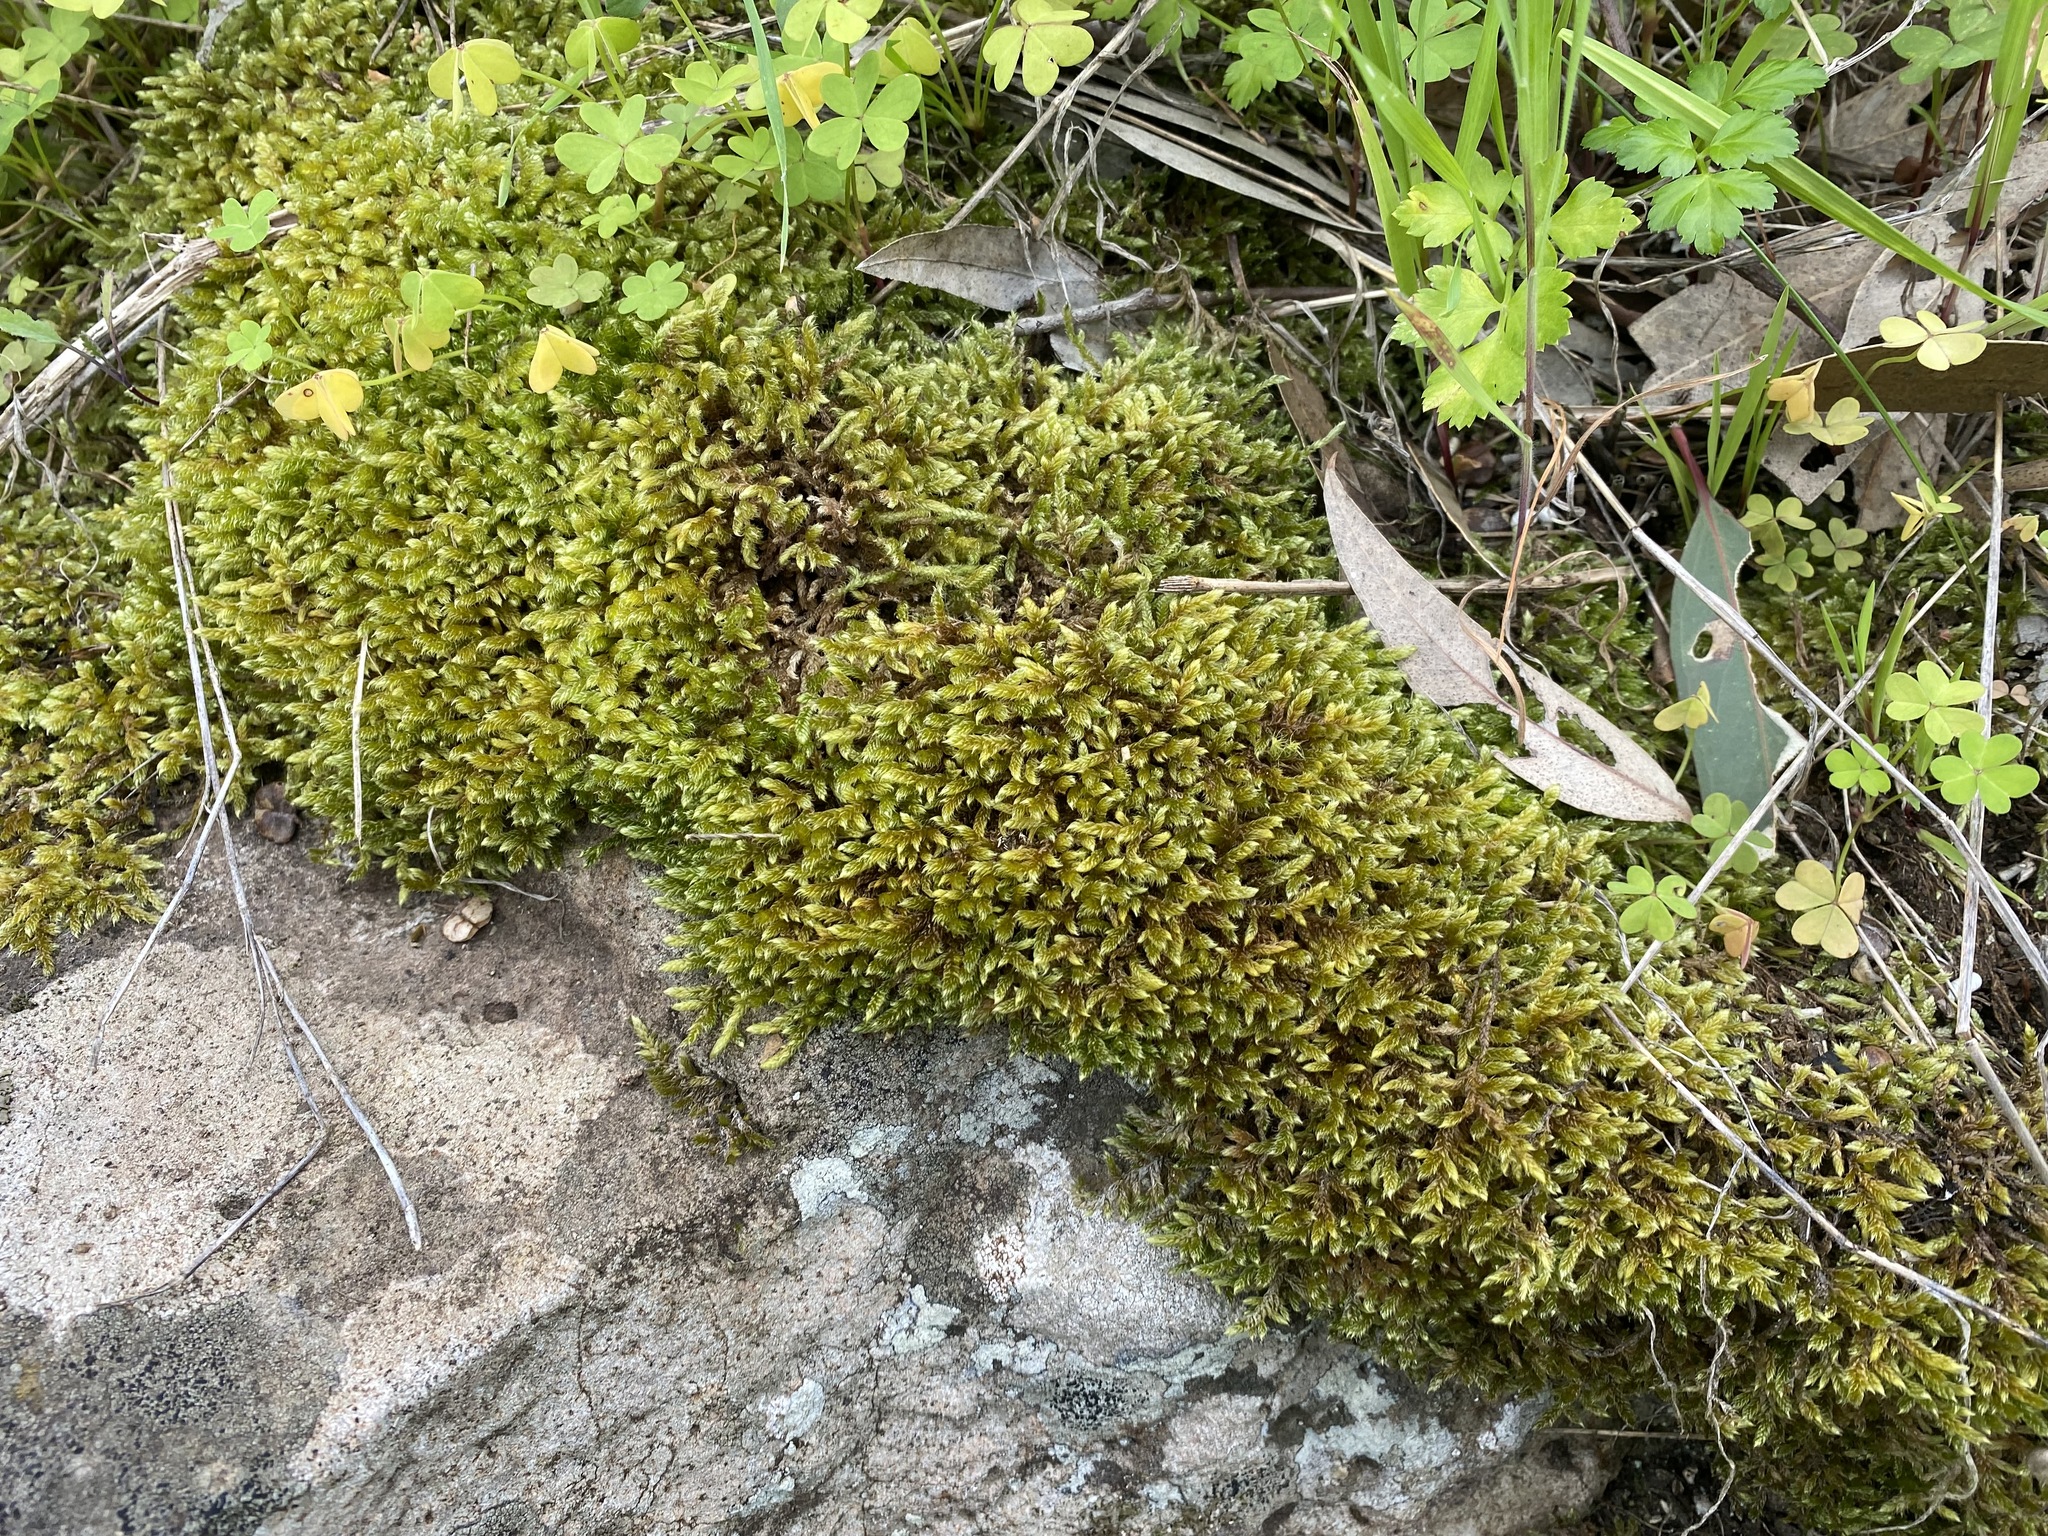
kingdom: Plantae
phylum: Bryophyta
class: Bryopsida
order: Hypnales
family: Hypnaceae
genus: Hypnum
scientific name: Hypnum cupressiforme
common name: Cypress-leaved plait-moss
